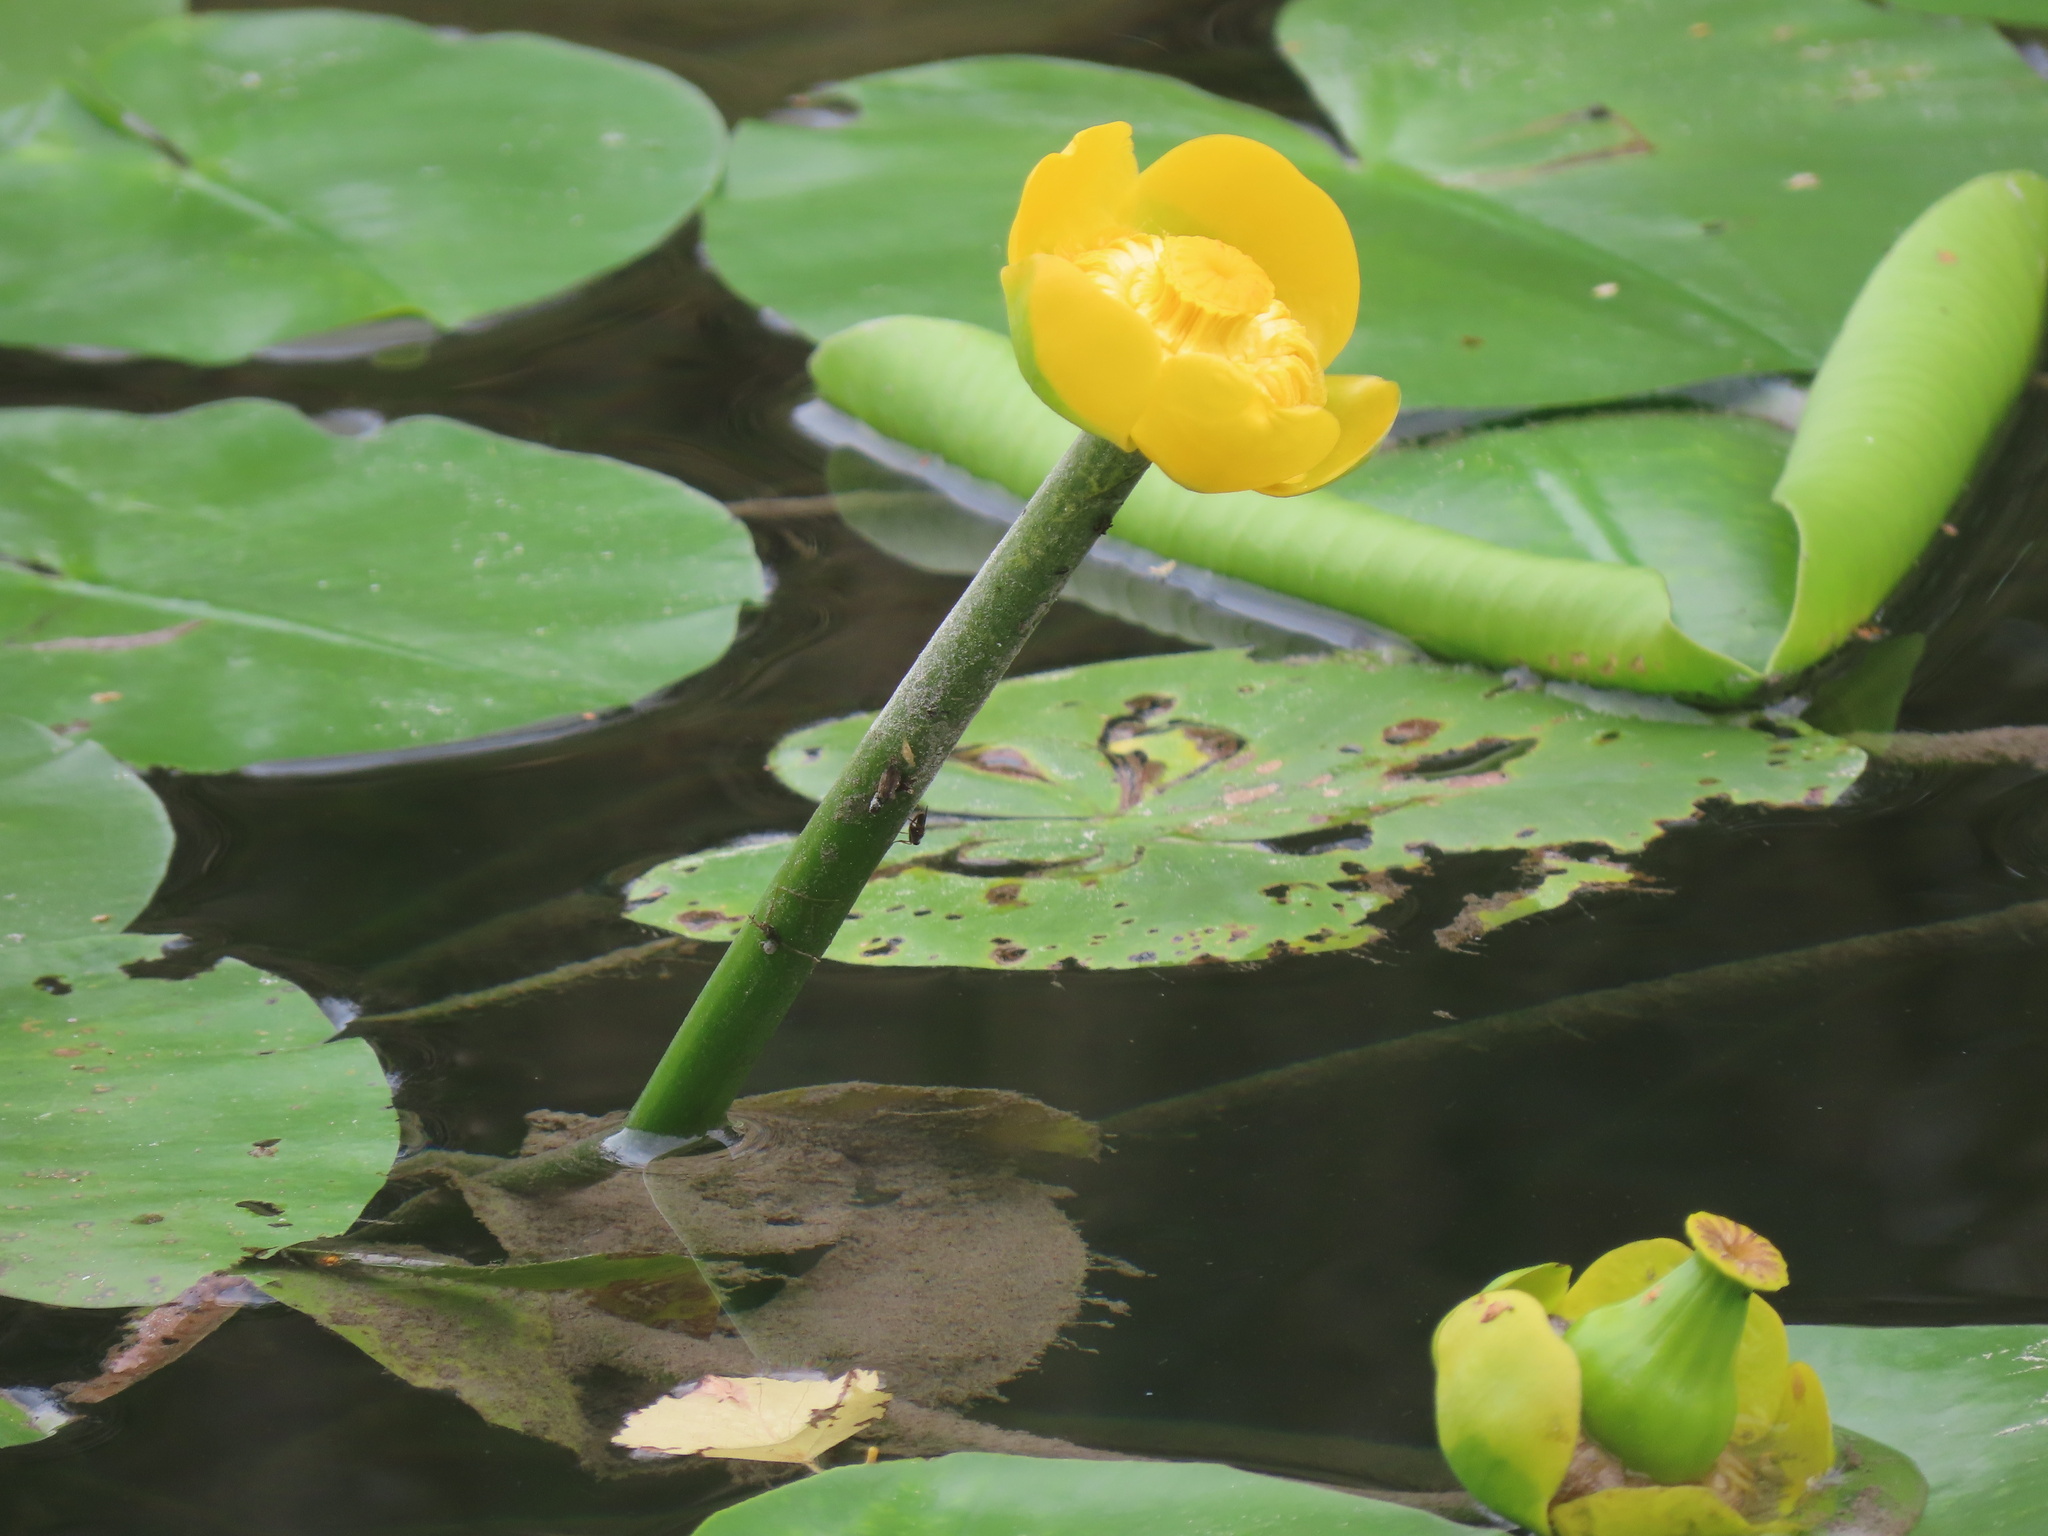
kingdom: Plantae
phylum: Tracheophyta
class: Magnoliopsida
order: Nymphaeales
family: Nymphaeaceae
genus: Nuphar
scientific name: Nuphar lutea
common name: Yellow water-lily
